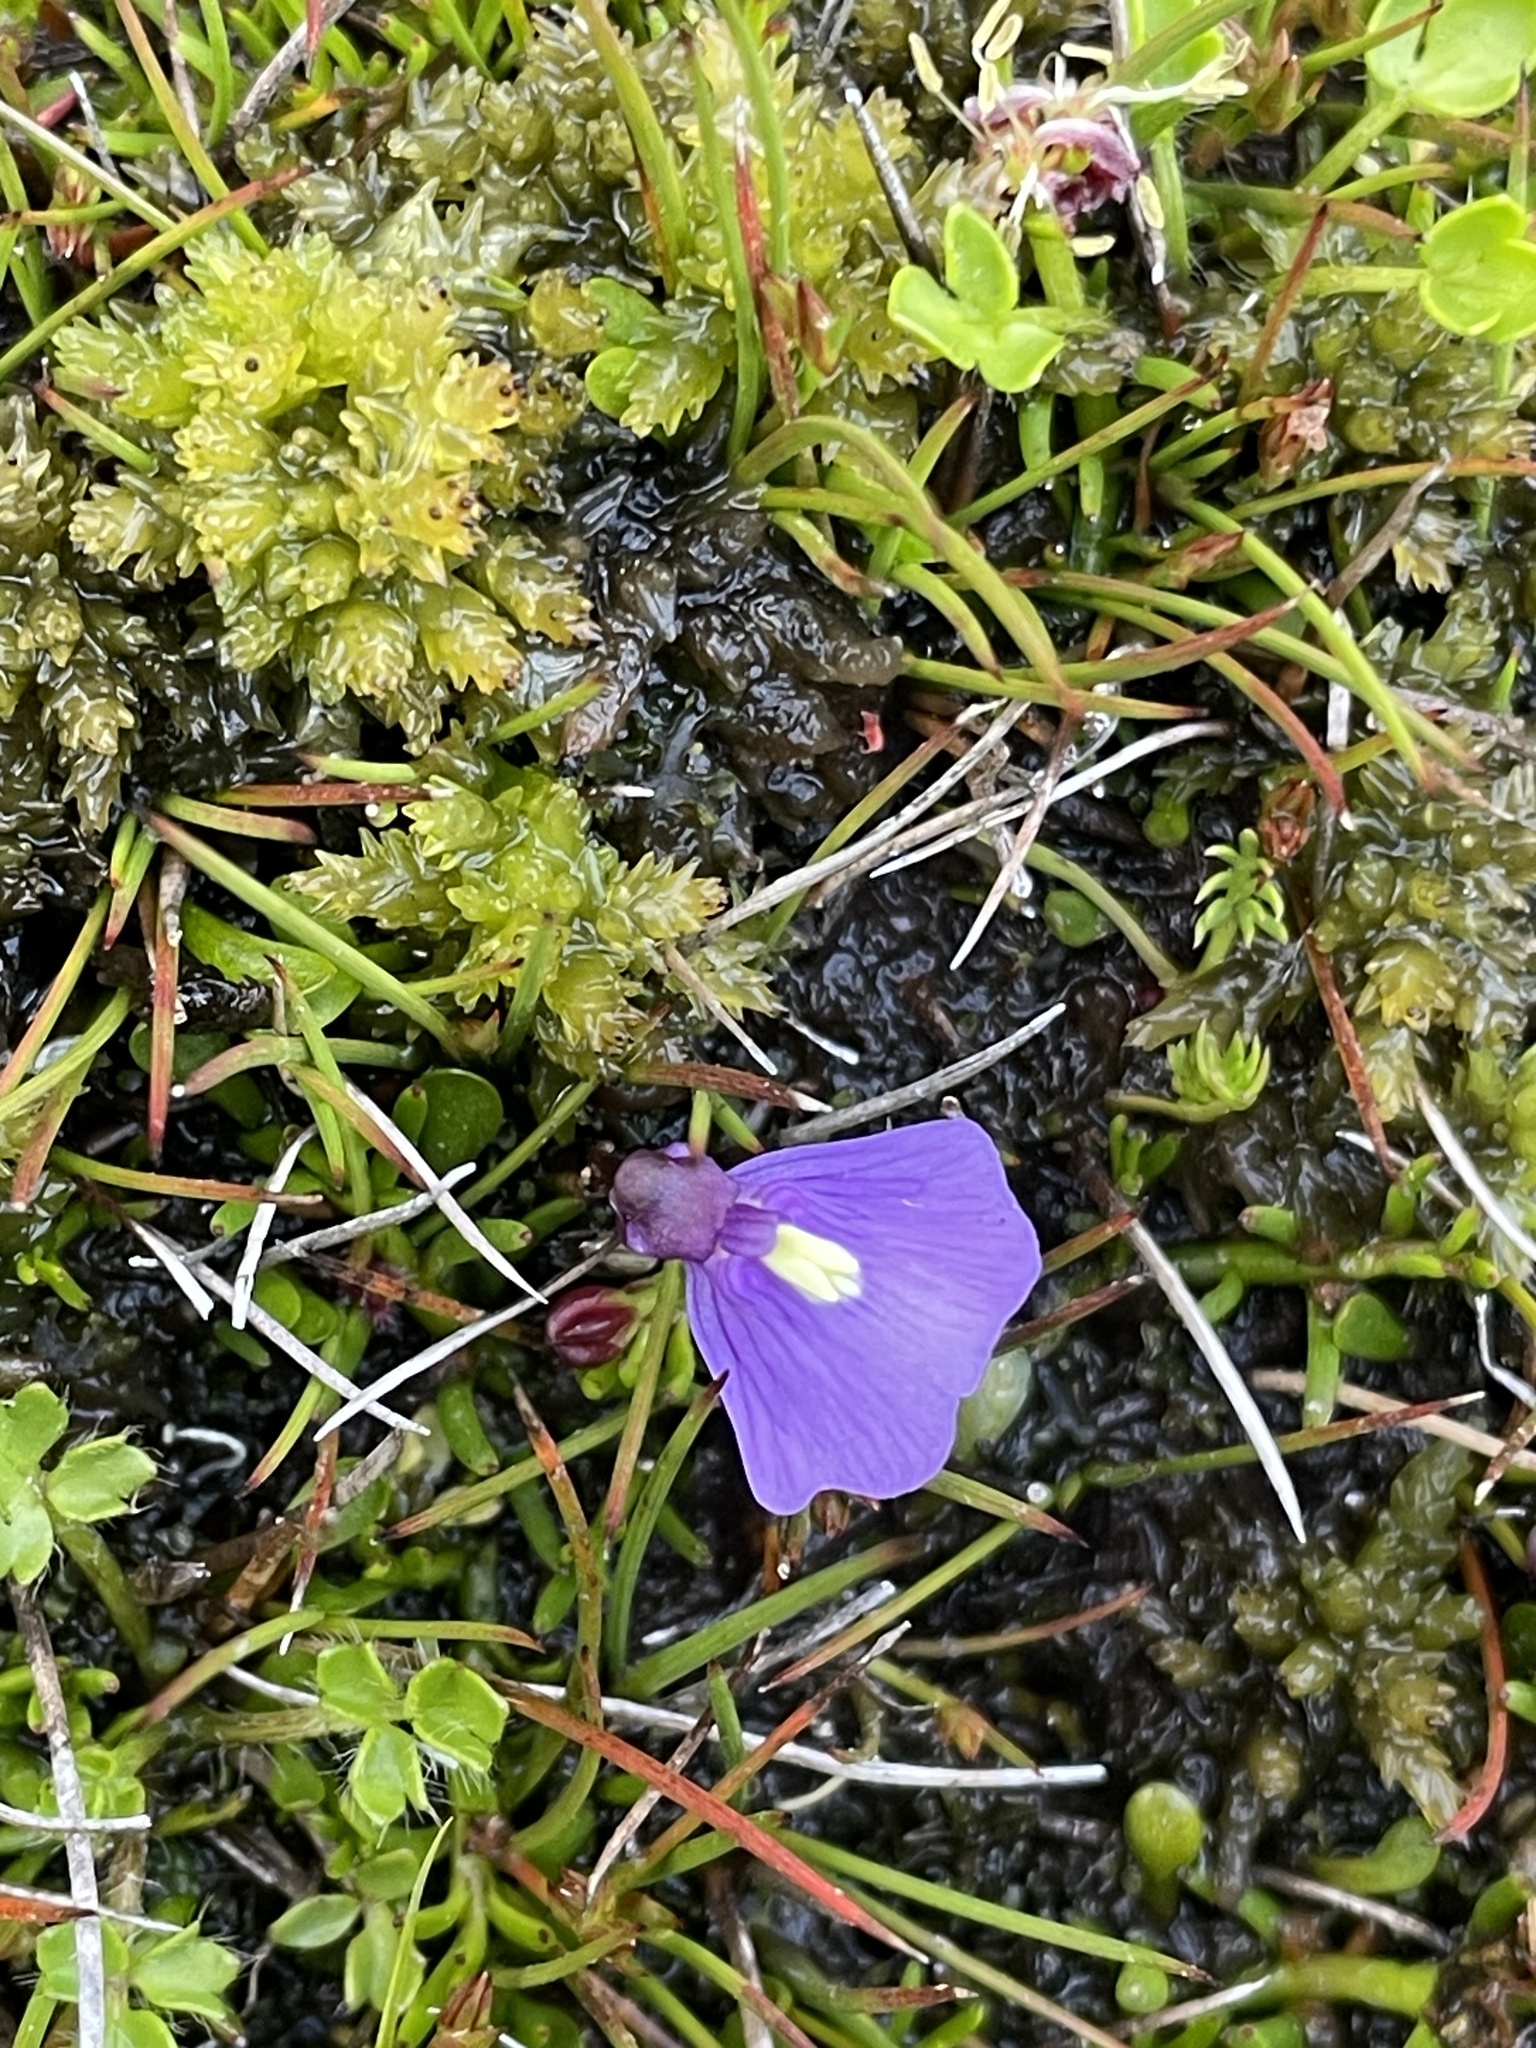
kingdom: Plantae
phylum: Tracheophyta
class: Magnoliopsida
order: Lamiales
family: Lentibulariaceae
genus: Utricularia
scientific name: Utricularia dichotoma
